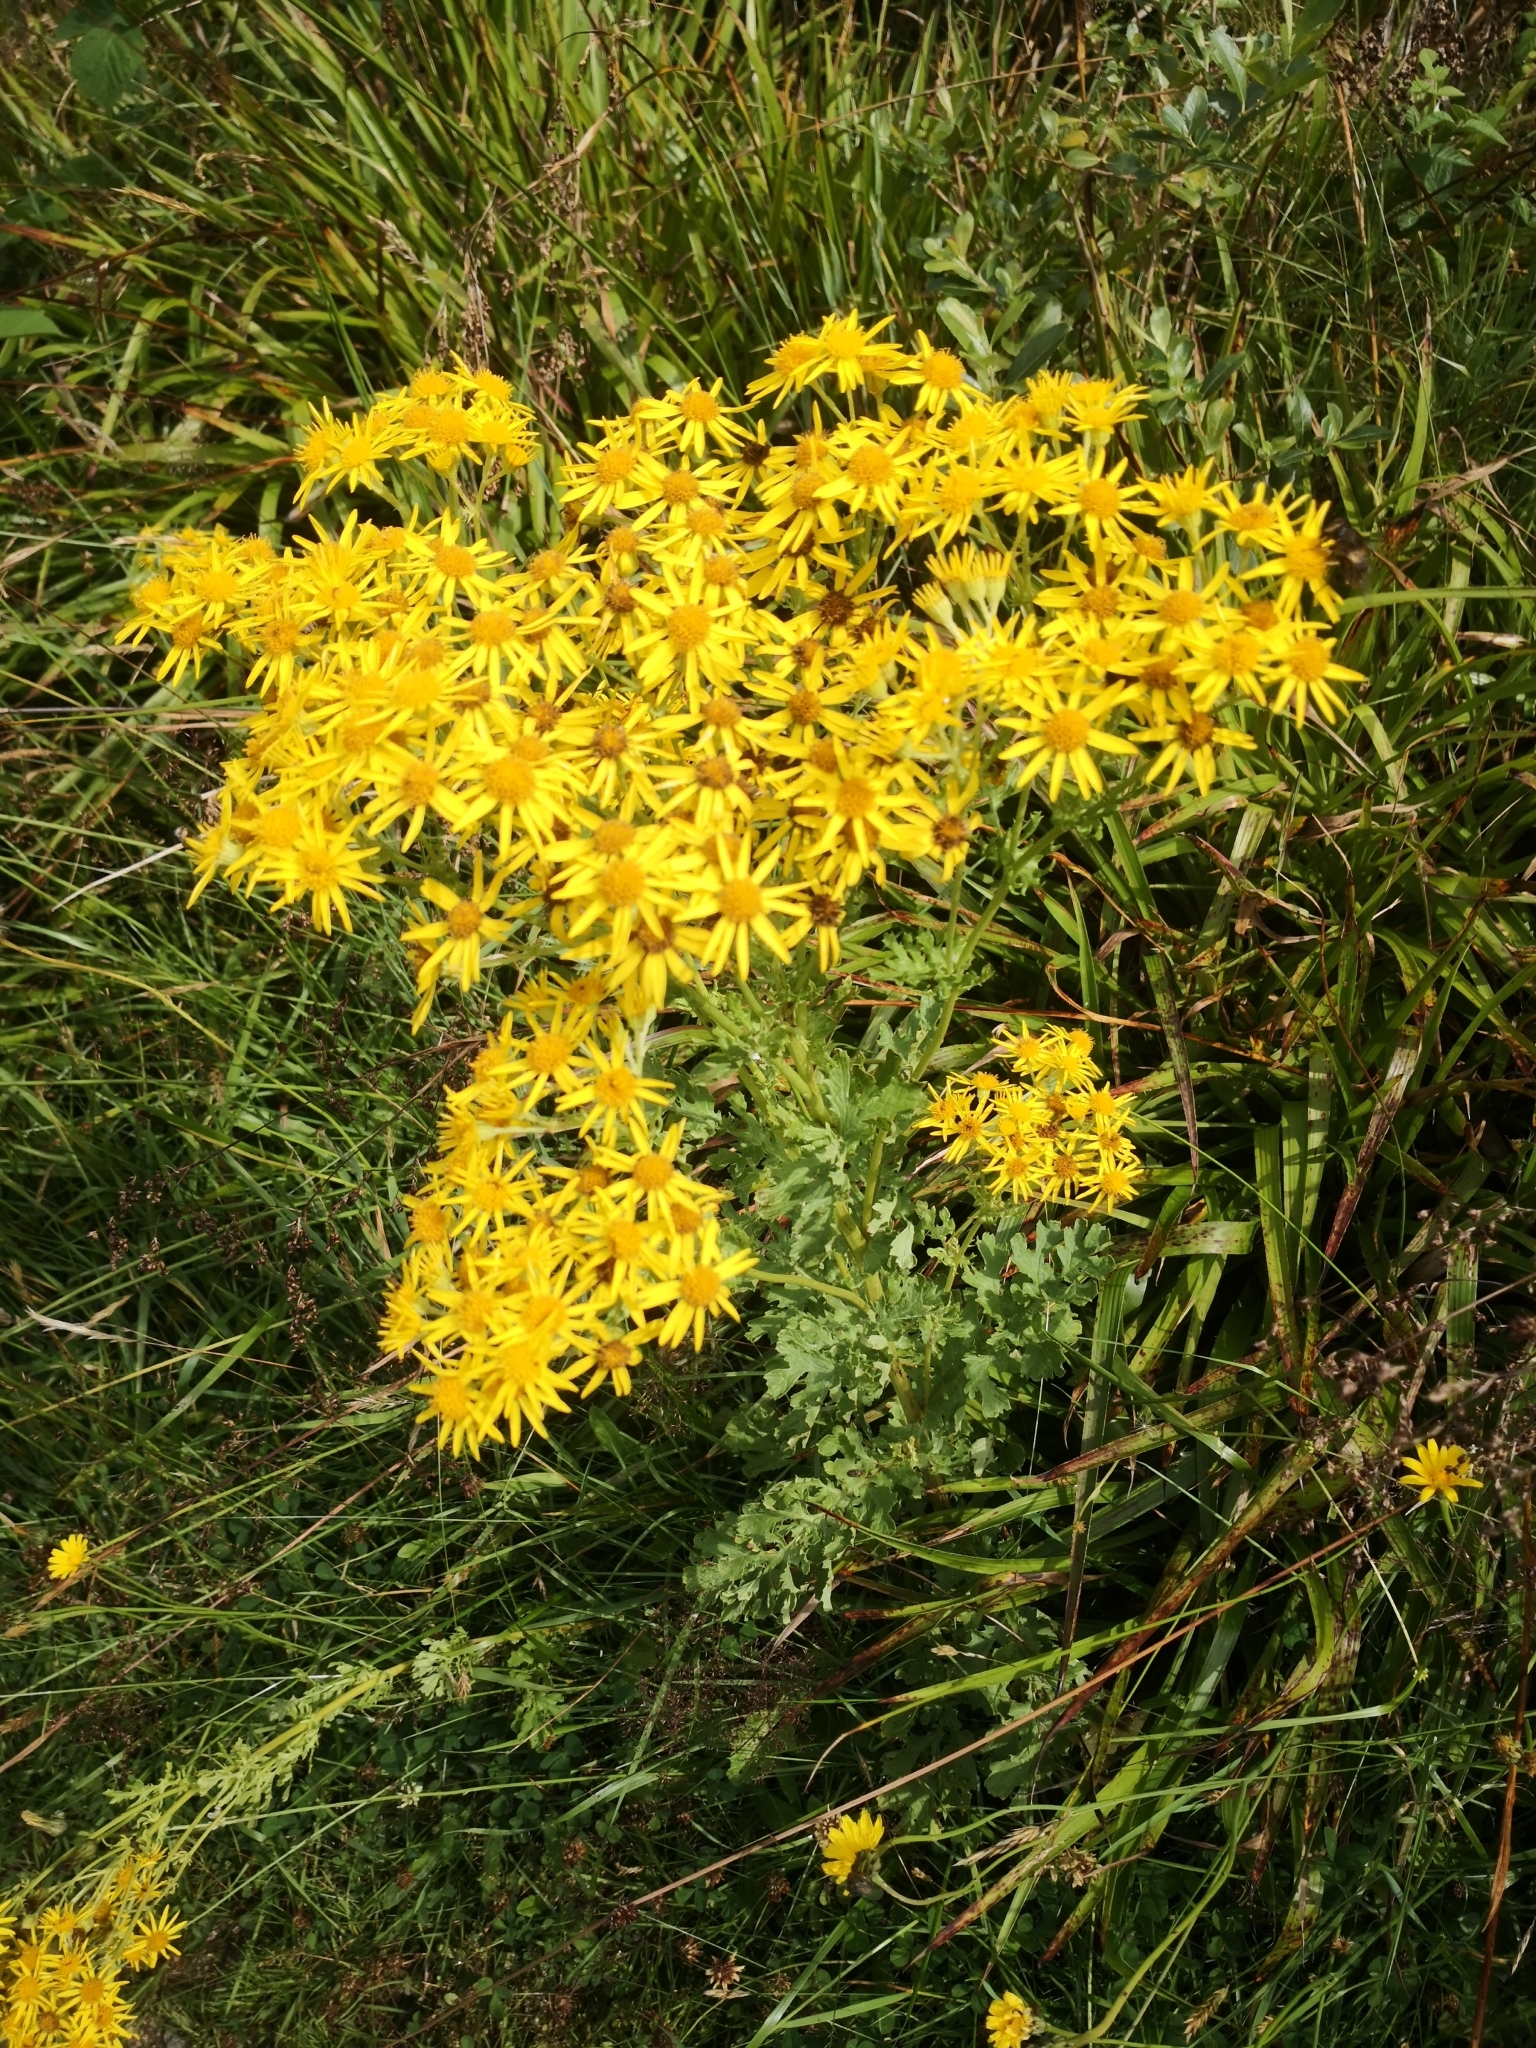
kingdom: Plantae
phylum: Tracheophyta
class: Magnoliopsida
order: Asterales
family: Asteraceae
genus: Jacobaea
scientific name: Jacobaea vulgaris
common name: Stinking willie
